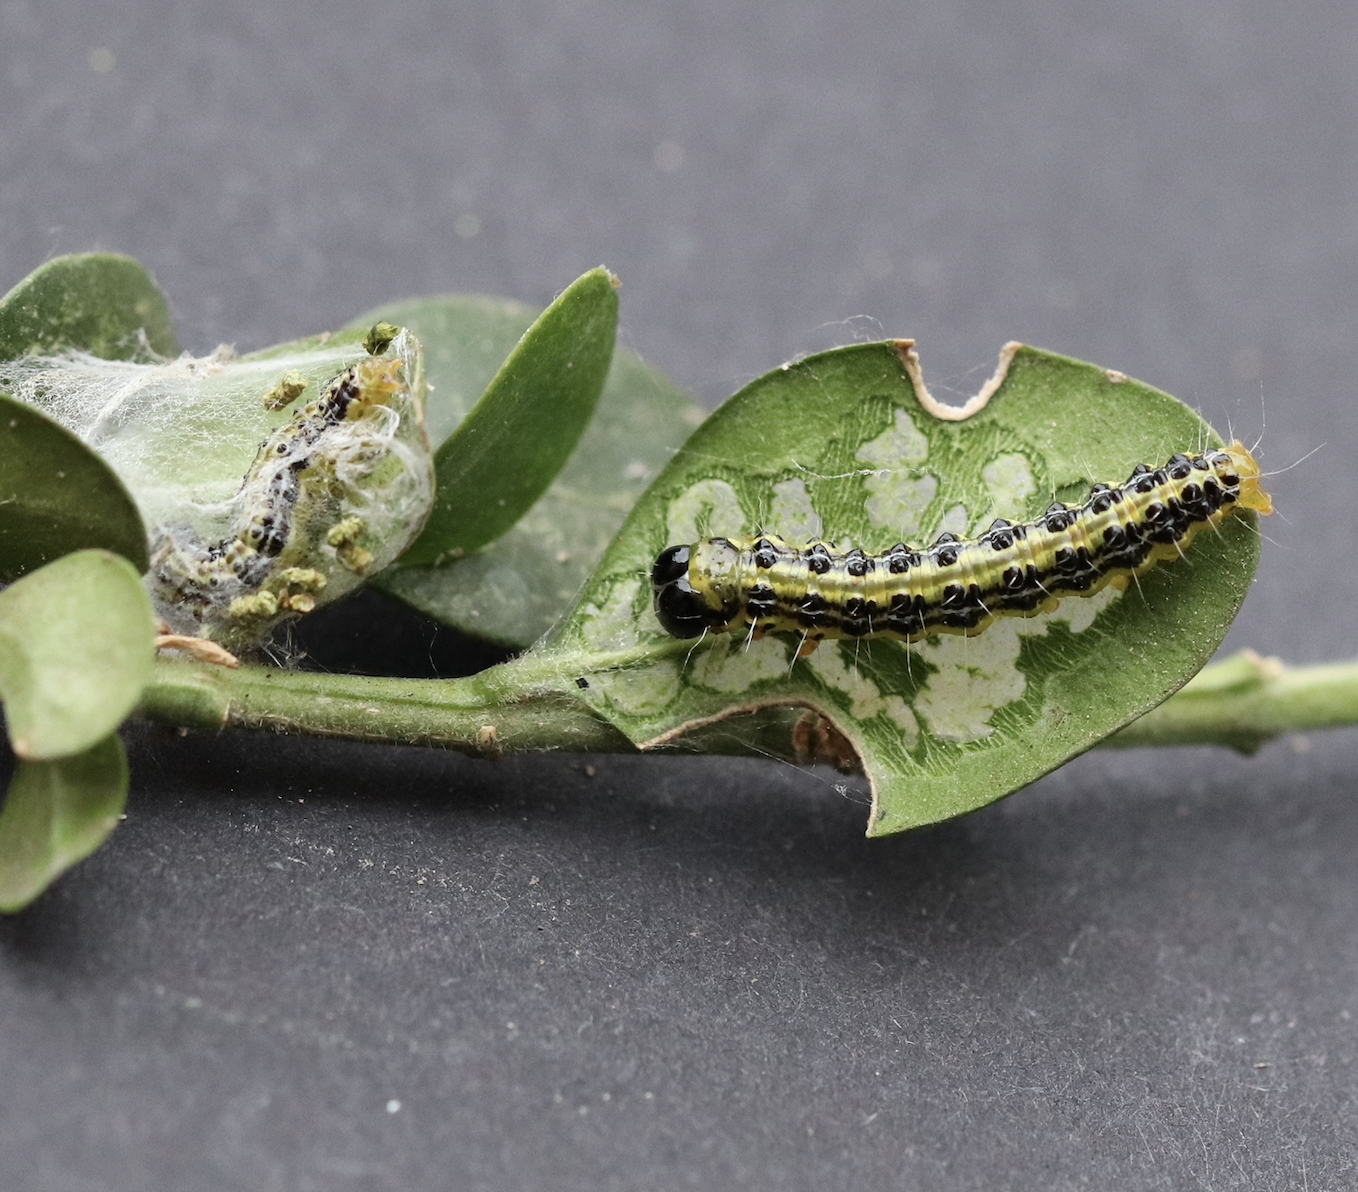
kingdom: Animalia
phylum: Arthropoda
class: Insecta
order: Lepidoptera
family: Crambidae
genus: Cydalima
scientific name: Cydalima perspectalis
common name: Box tree moth
